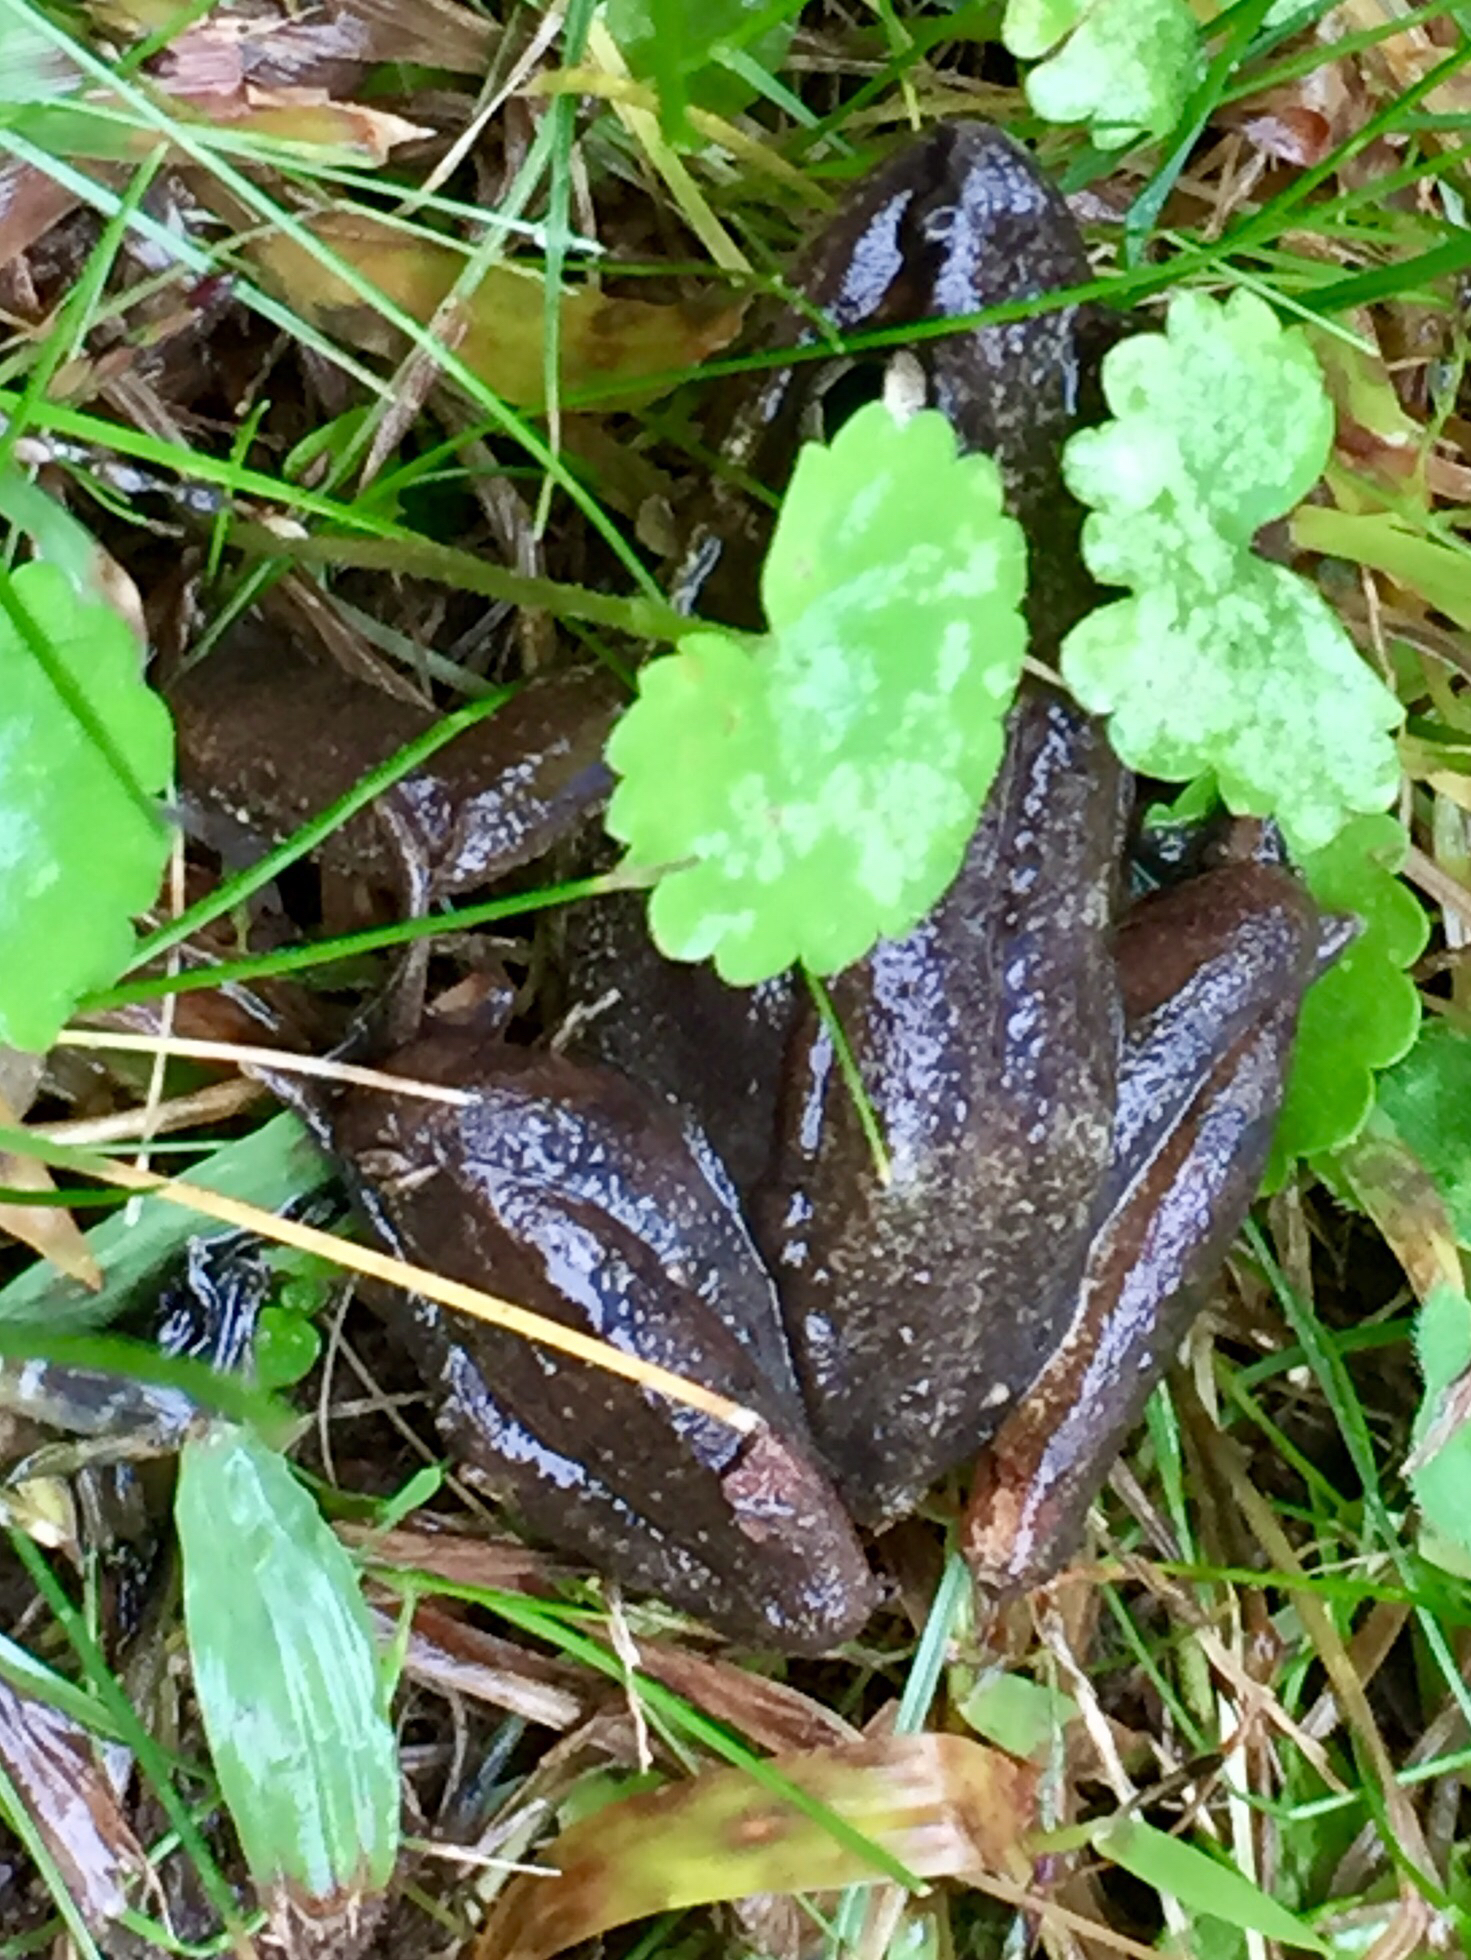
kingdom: Animalia
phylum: Chordata
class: Amphibia
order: Anura
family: Ranidae
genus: Lithobates
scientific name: Lithobates clamitans
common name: Green frog
